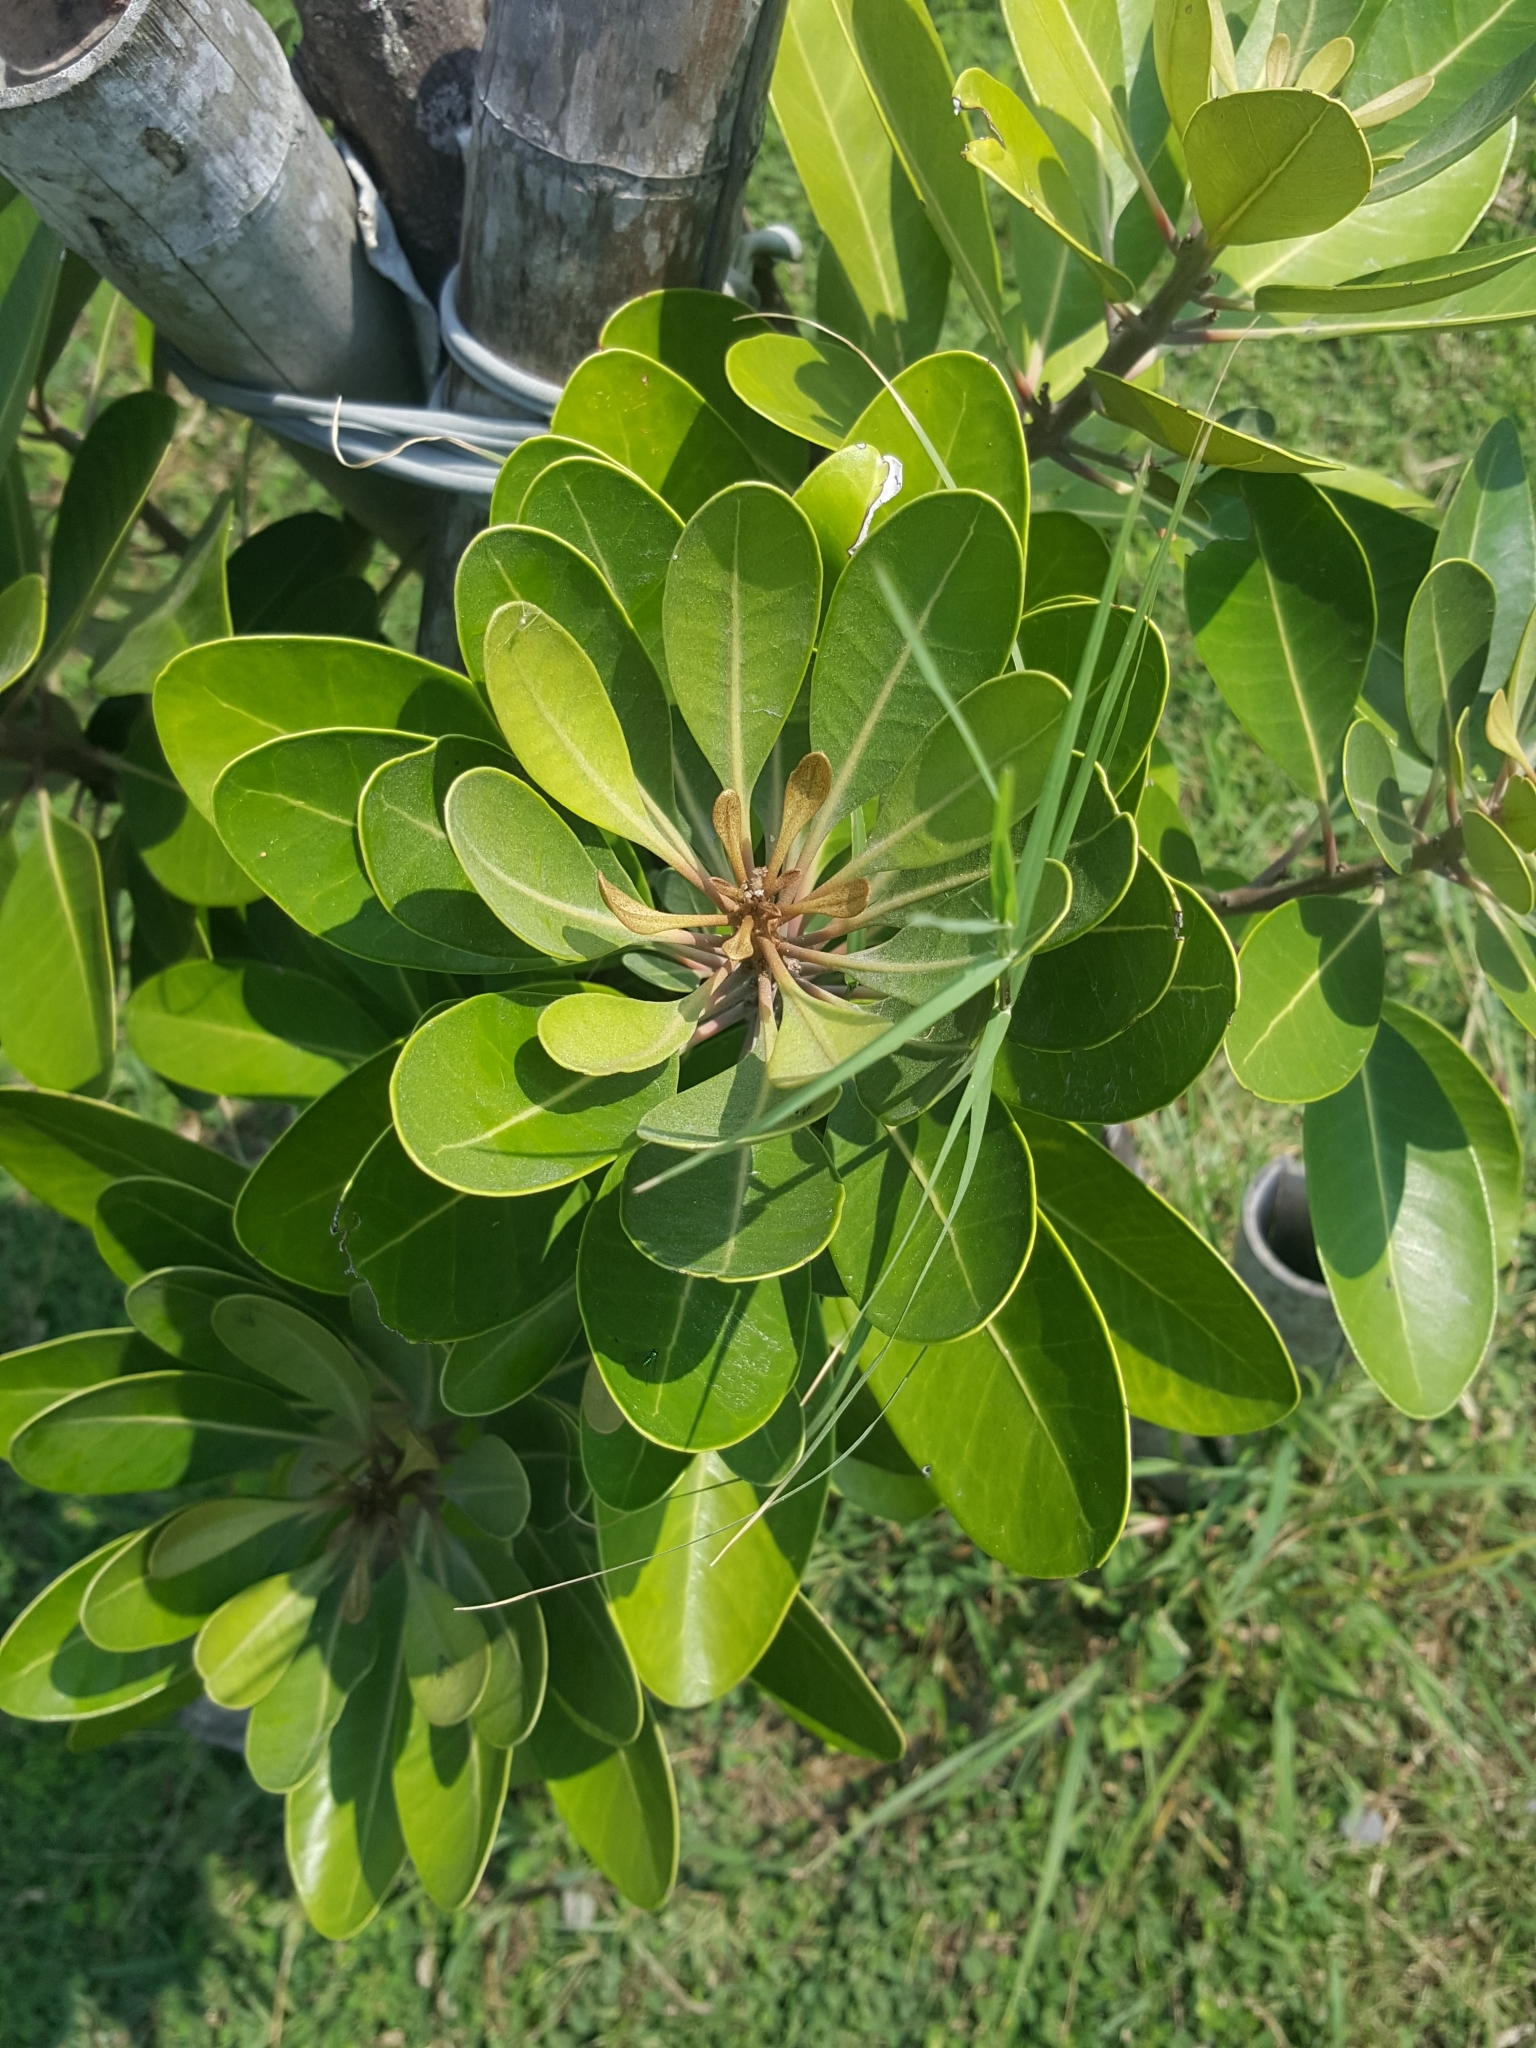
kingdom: Plantae
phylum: Tracheophyta
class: Magnoliopsida
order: Ericales
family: Sapotaceae
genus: Planchonella
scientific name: Planchonella obovata
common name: Black-ash
